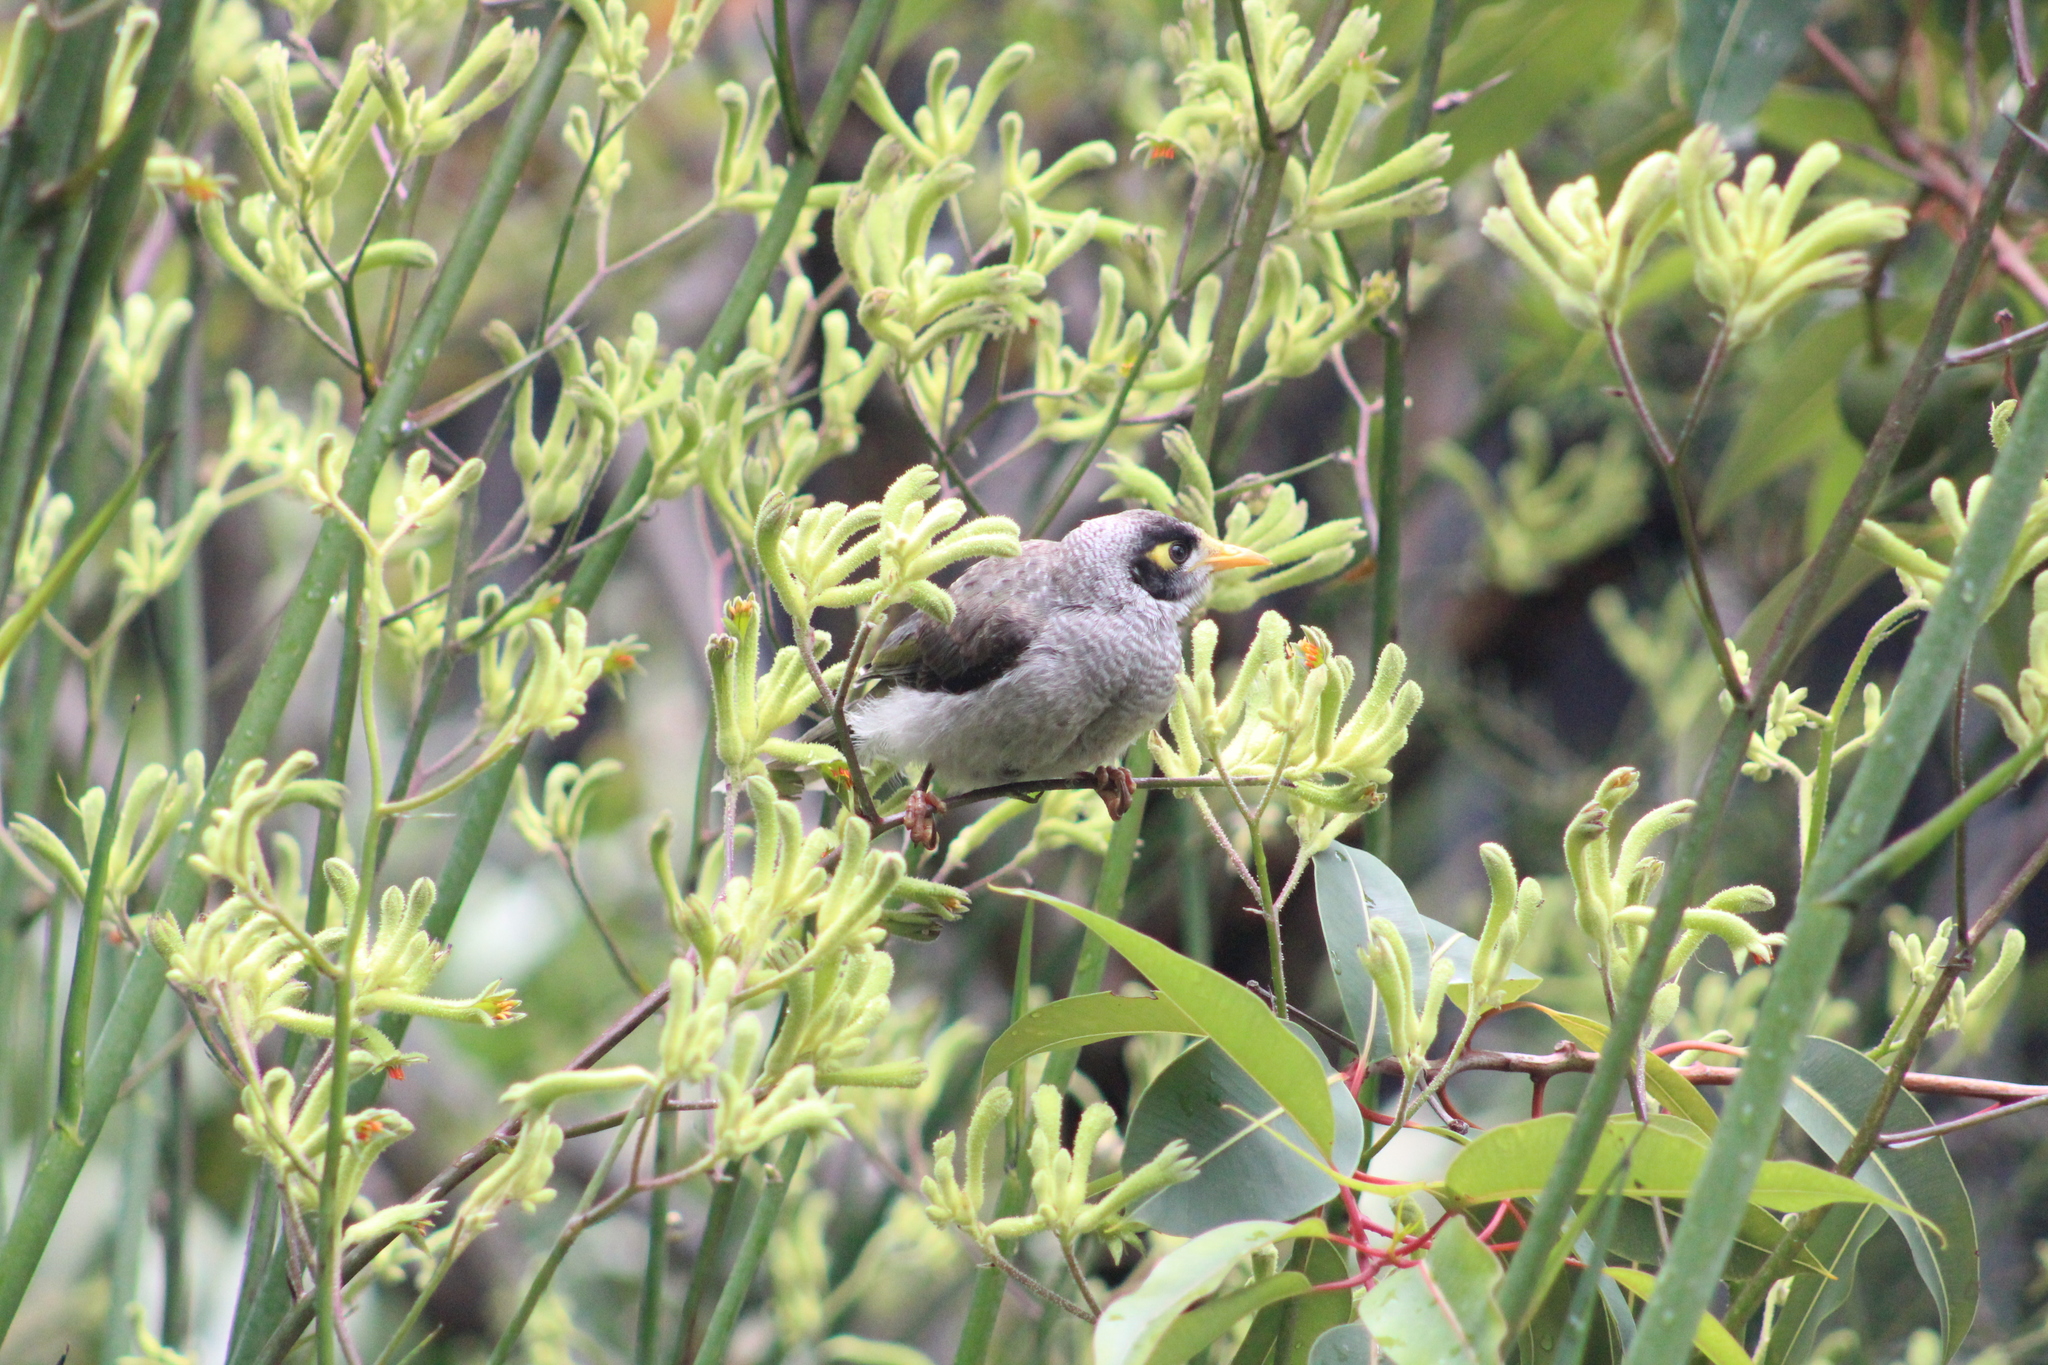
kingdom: Animalia
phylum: Chordata
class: Aves
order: Passeriformes
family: Meliphagidae
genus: Manorina
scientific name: Manorina melanocephala
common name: Noisy miner
